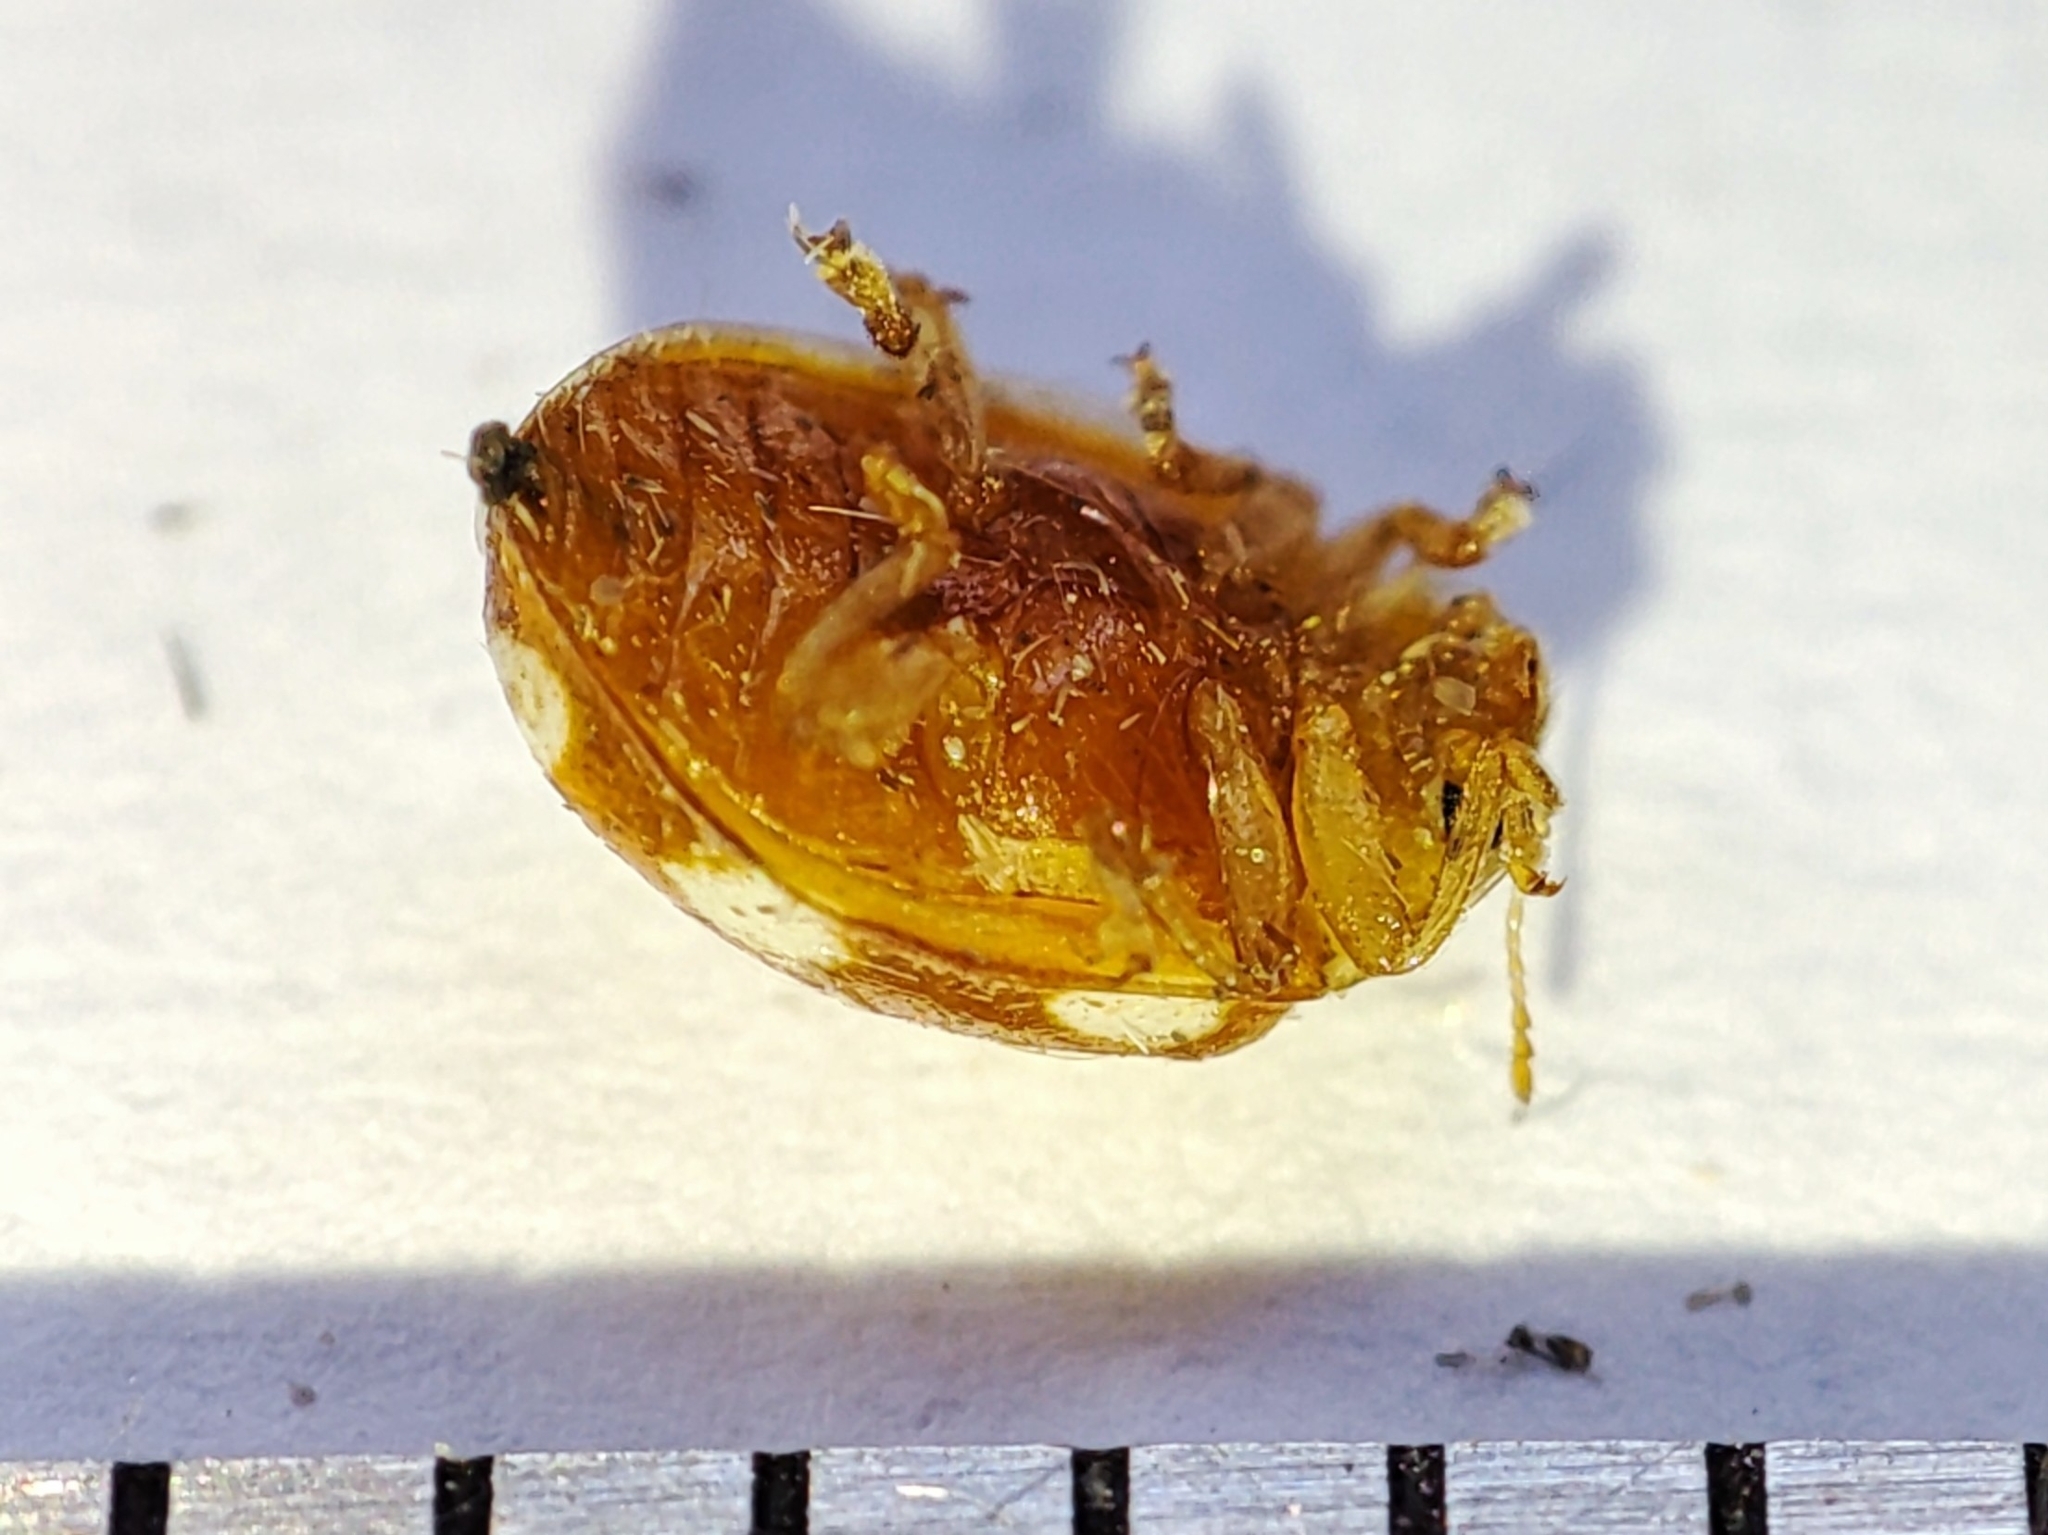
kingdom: Animalia
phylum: Arthropoda
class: Insecta
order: Coleoptera
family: Coccinellidae
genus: Vibidia
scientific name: Vibidia duodecimguttata
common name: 12-spot ladybird
